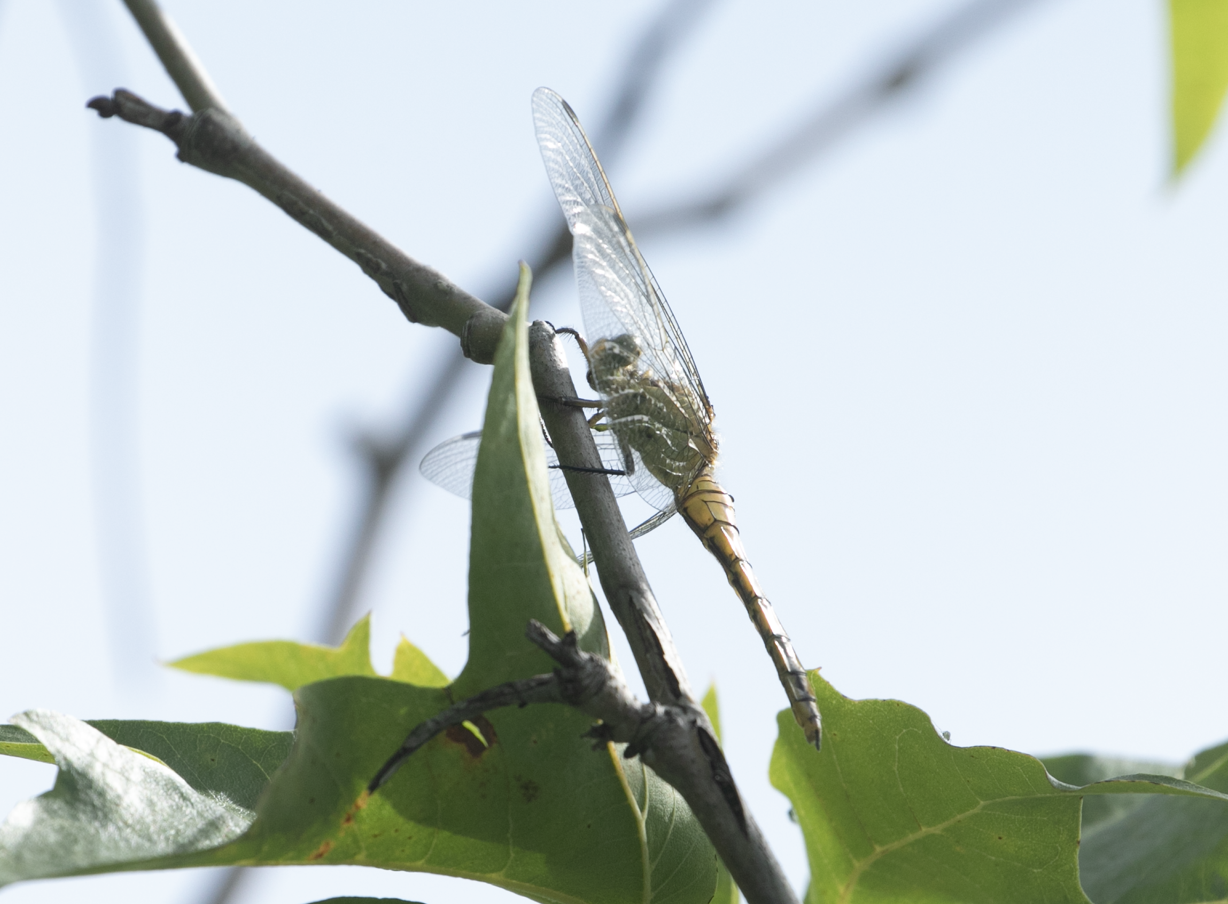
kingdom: Animalia
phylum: Arthropoda
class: Insecta
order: Odonata
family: Libellulidae
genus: Orthetrum
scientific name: Orthetrum cancellatum
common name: Black-tailed skimmer
